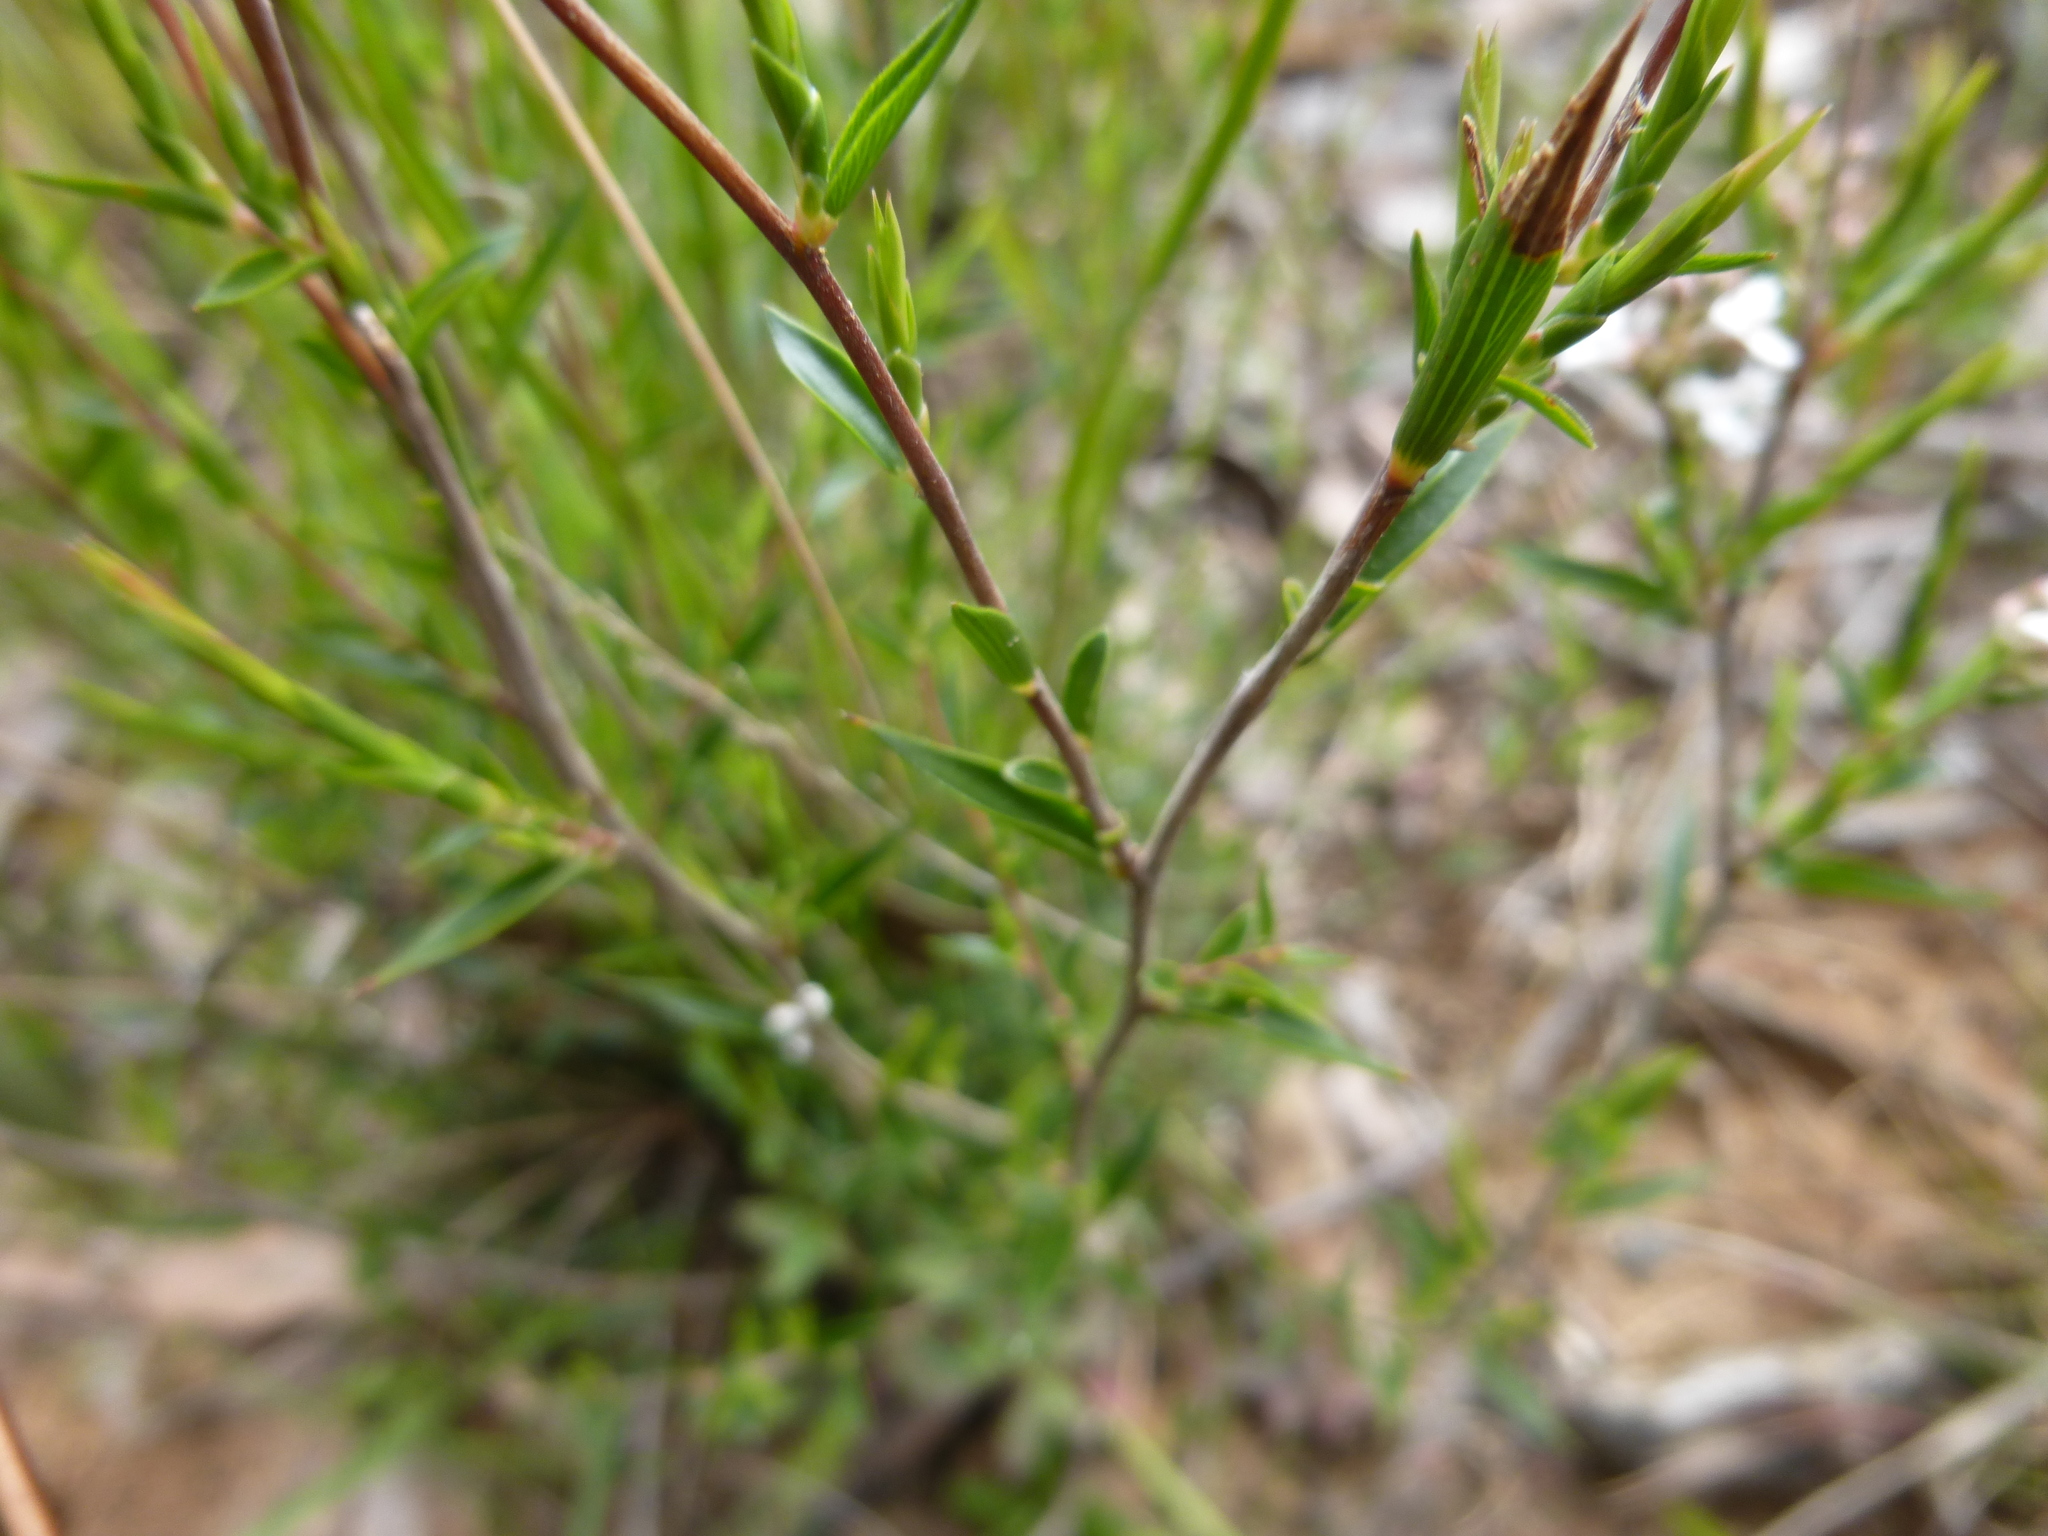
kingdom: Plantae
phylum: Tracheophyta
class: Magnoliopsida
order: Ericales
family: Ericaceae
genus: Leucopogon
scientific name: Leucopogon virgatus
